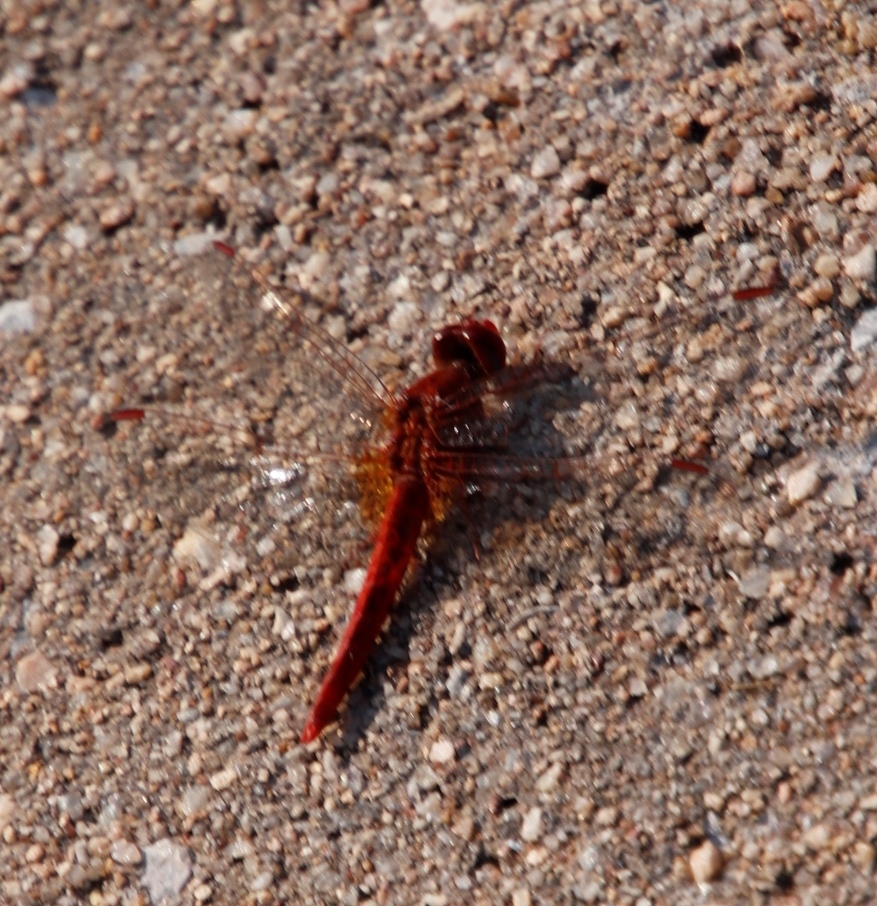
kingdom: Animalia
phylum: Arthropoda
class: Insecta
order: Odonata
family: Libellulidae
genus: Crocothemis
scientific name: Crocothemis sanguinolenta
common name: Little scarlet
